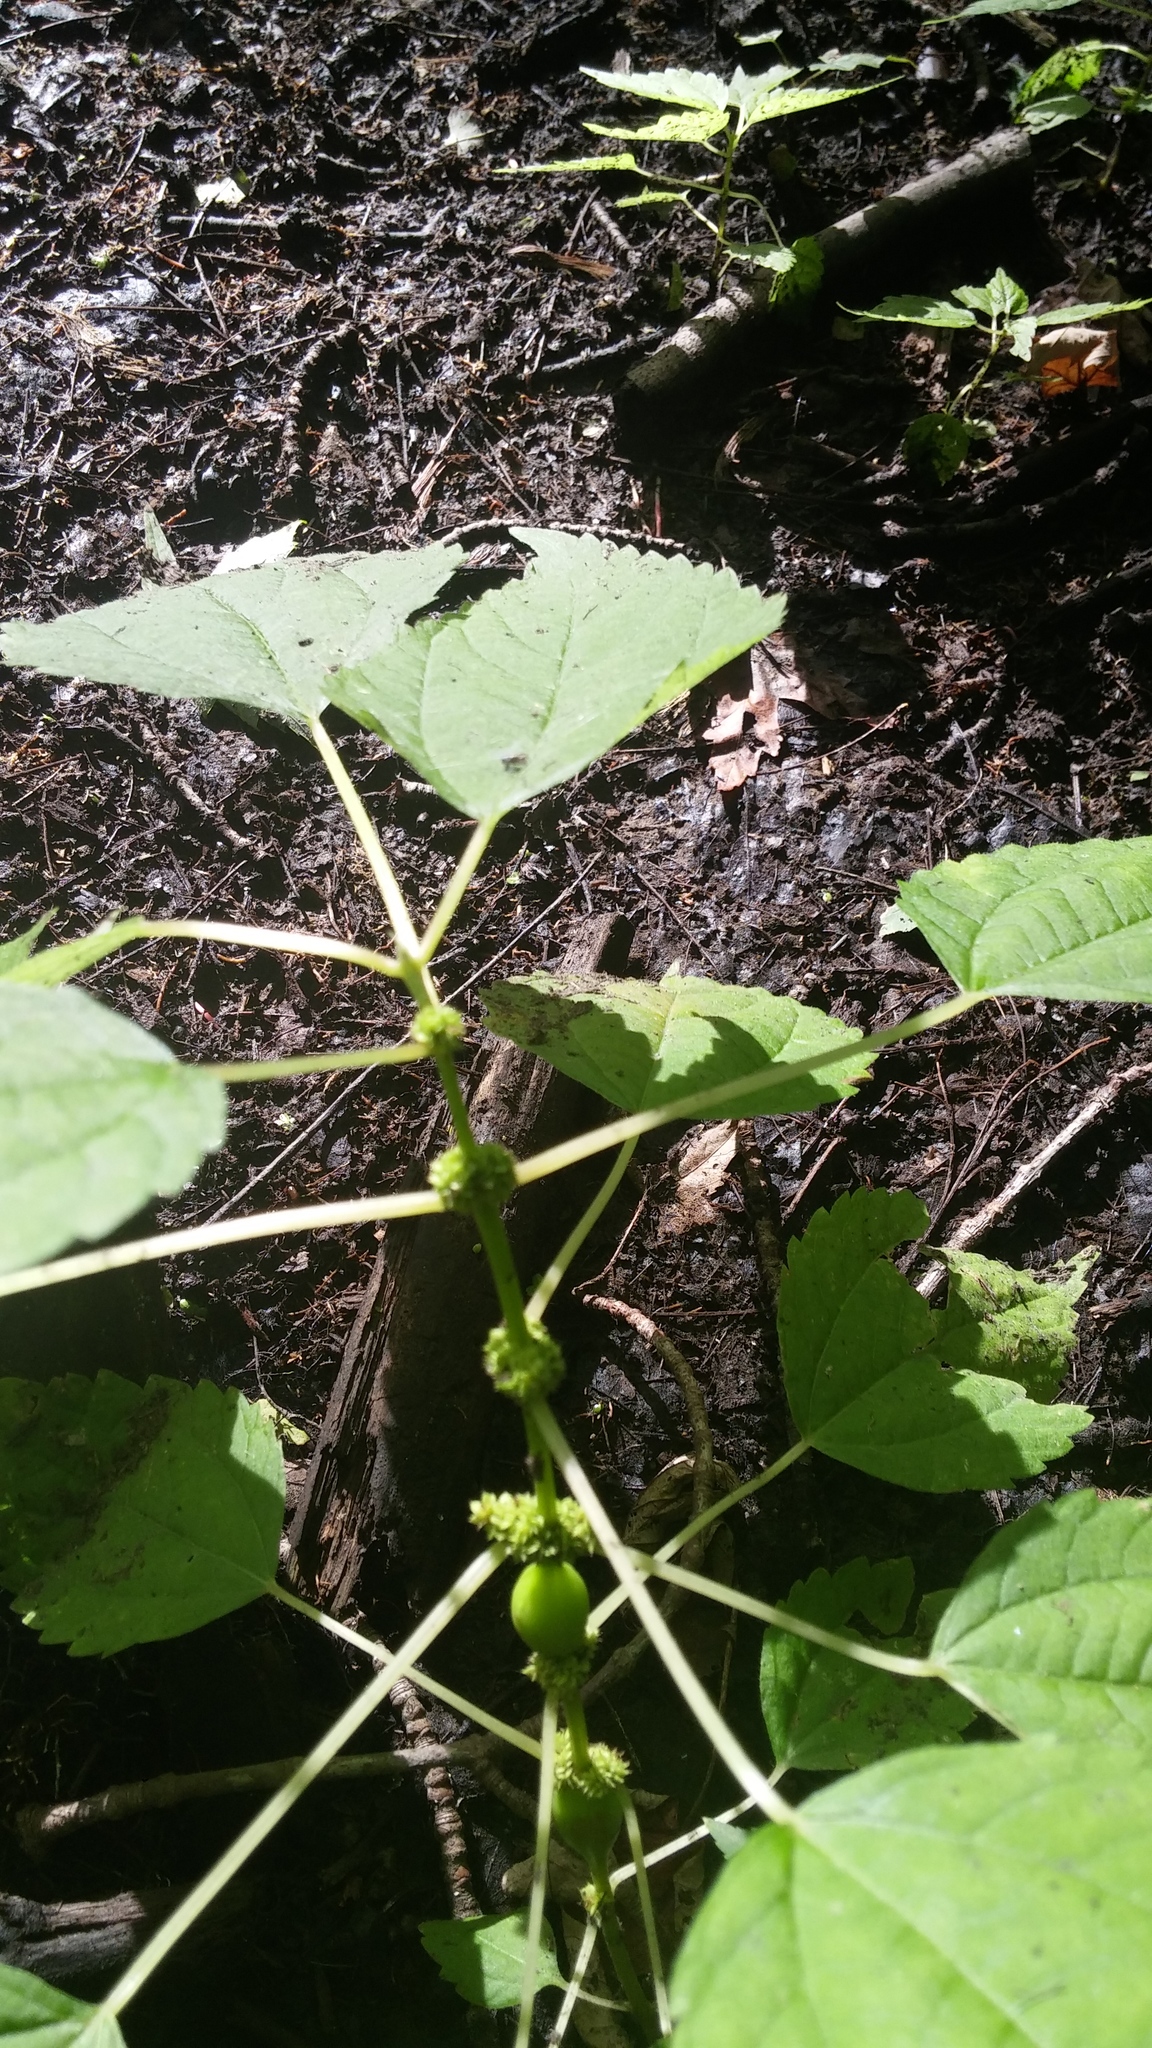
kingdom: Plantae
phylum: Tracheophyta
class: Magnoliopsida
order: Rosales
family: Urticaceae
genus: Boehmeria
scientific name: Boehmeria cylindrica
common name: Bog-hemp
